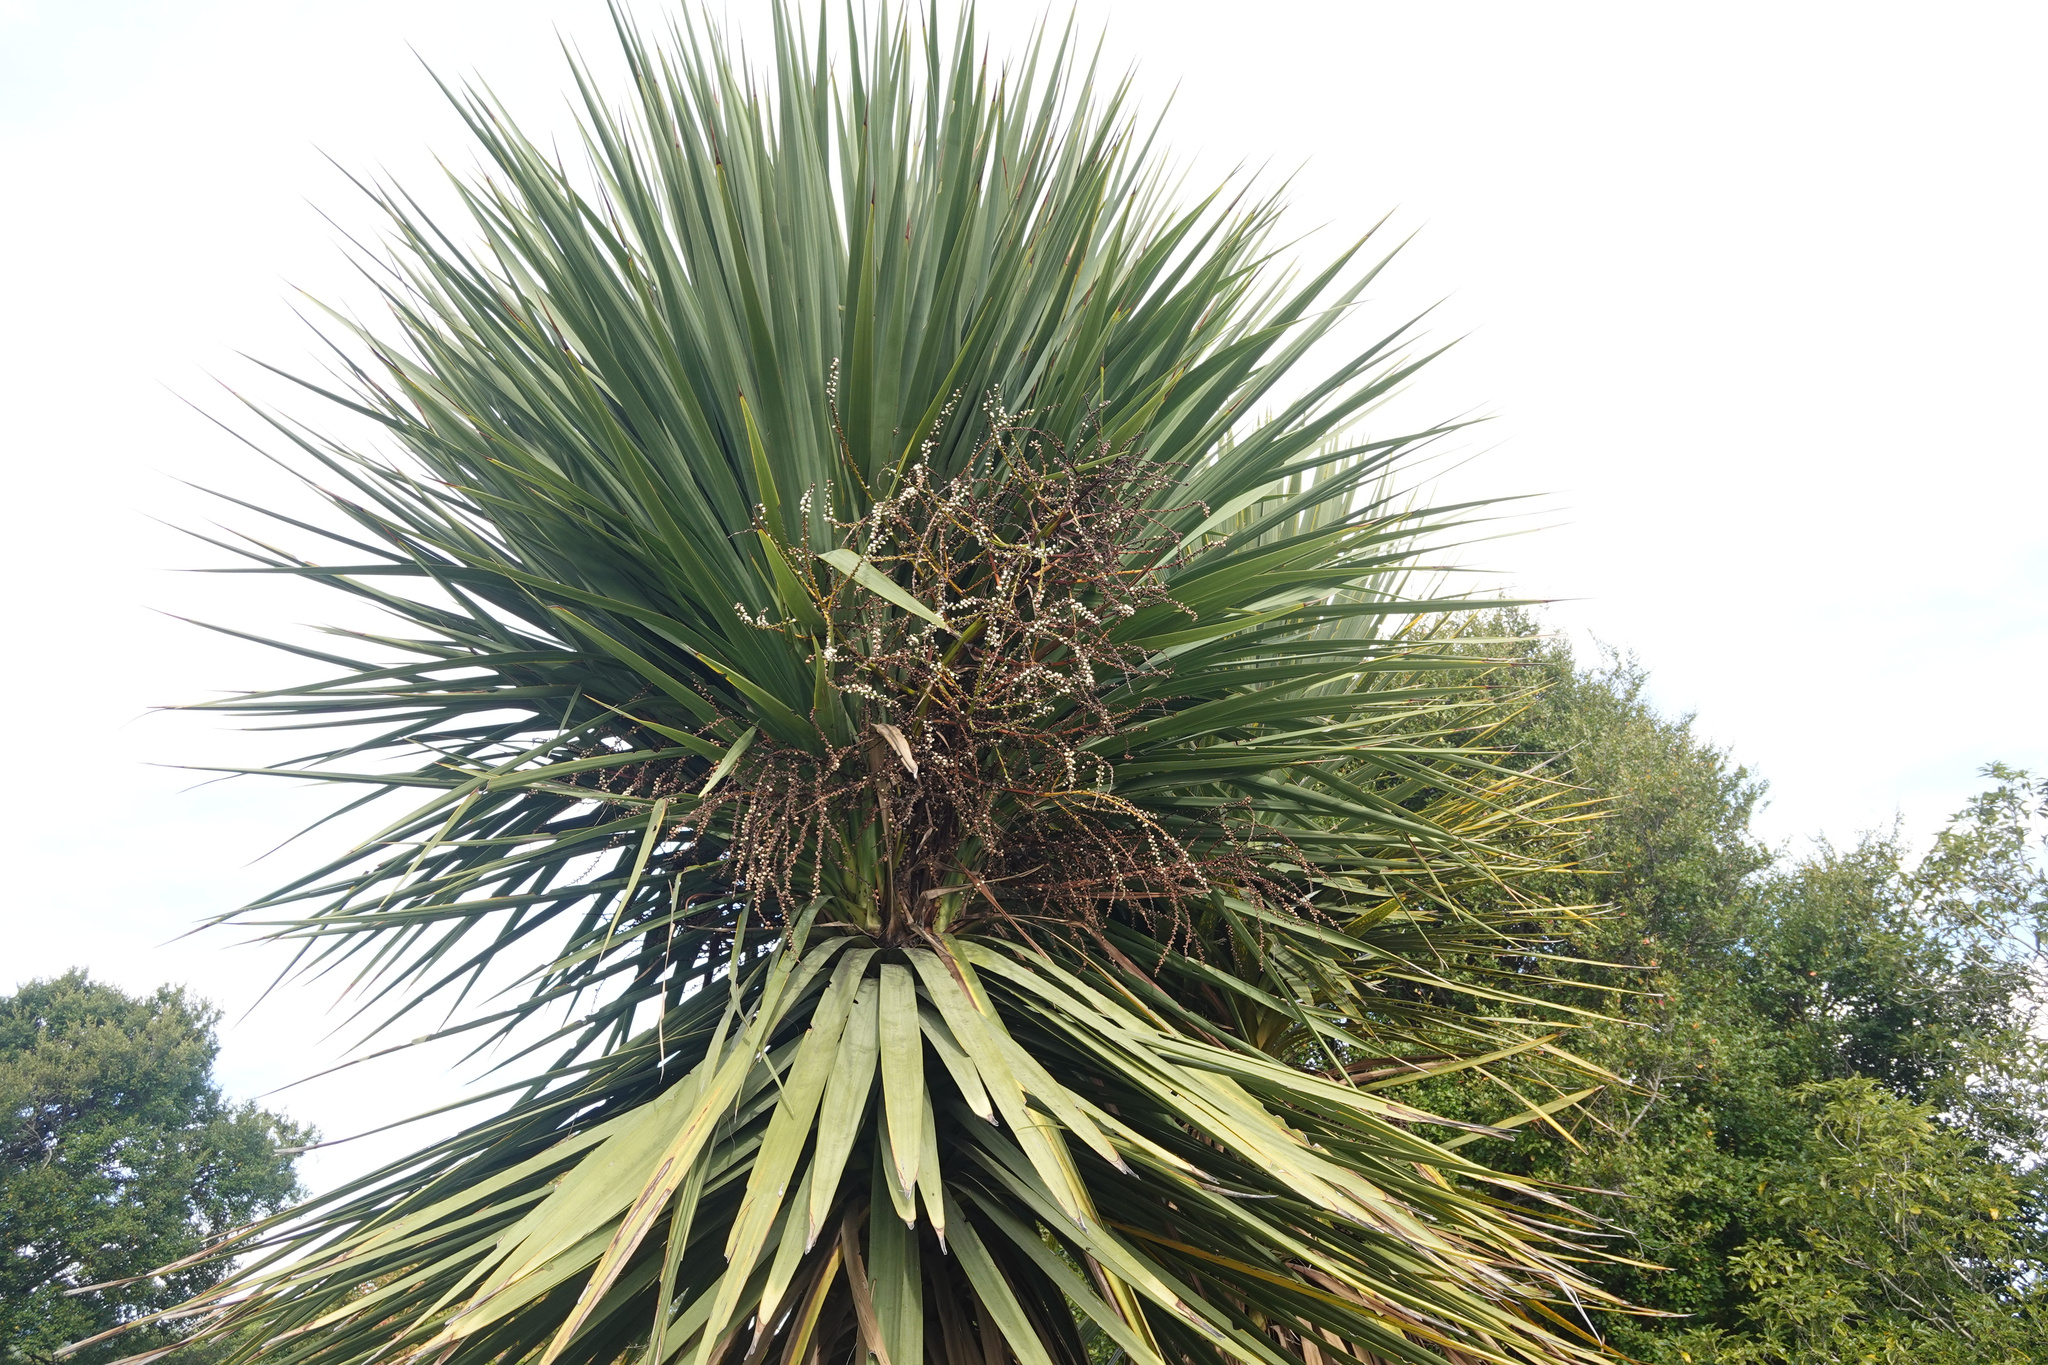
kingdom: Plantae
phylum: Tracheophyta
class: Liliopsida
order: Asparagales
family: Asparagaceae
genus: Cordyline
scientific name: Cordyline australis
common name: Cabbage-palm
